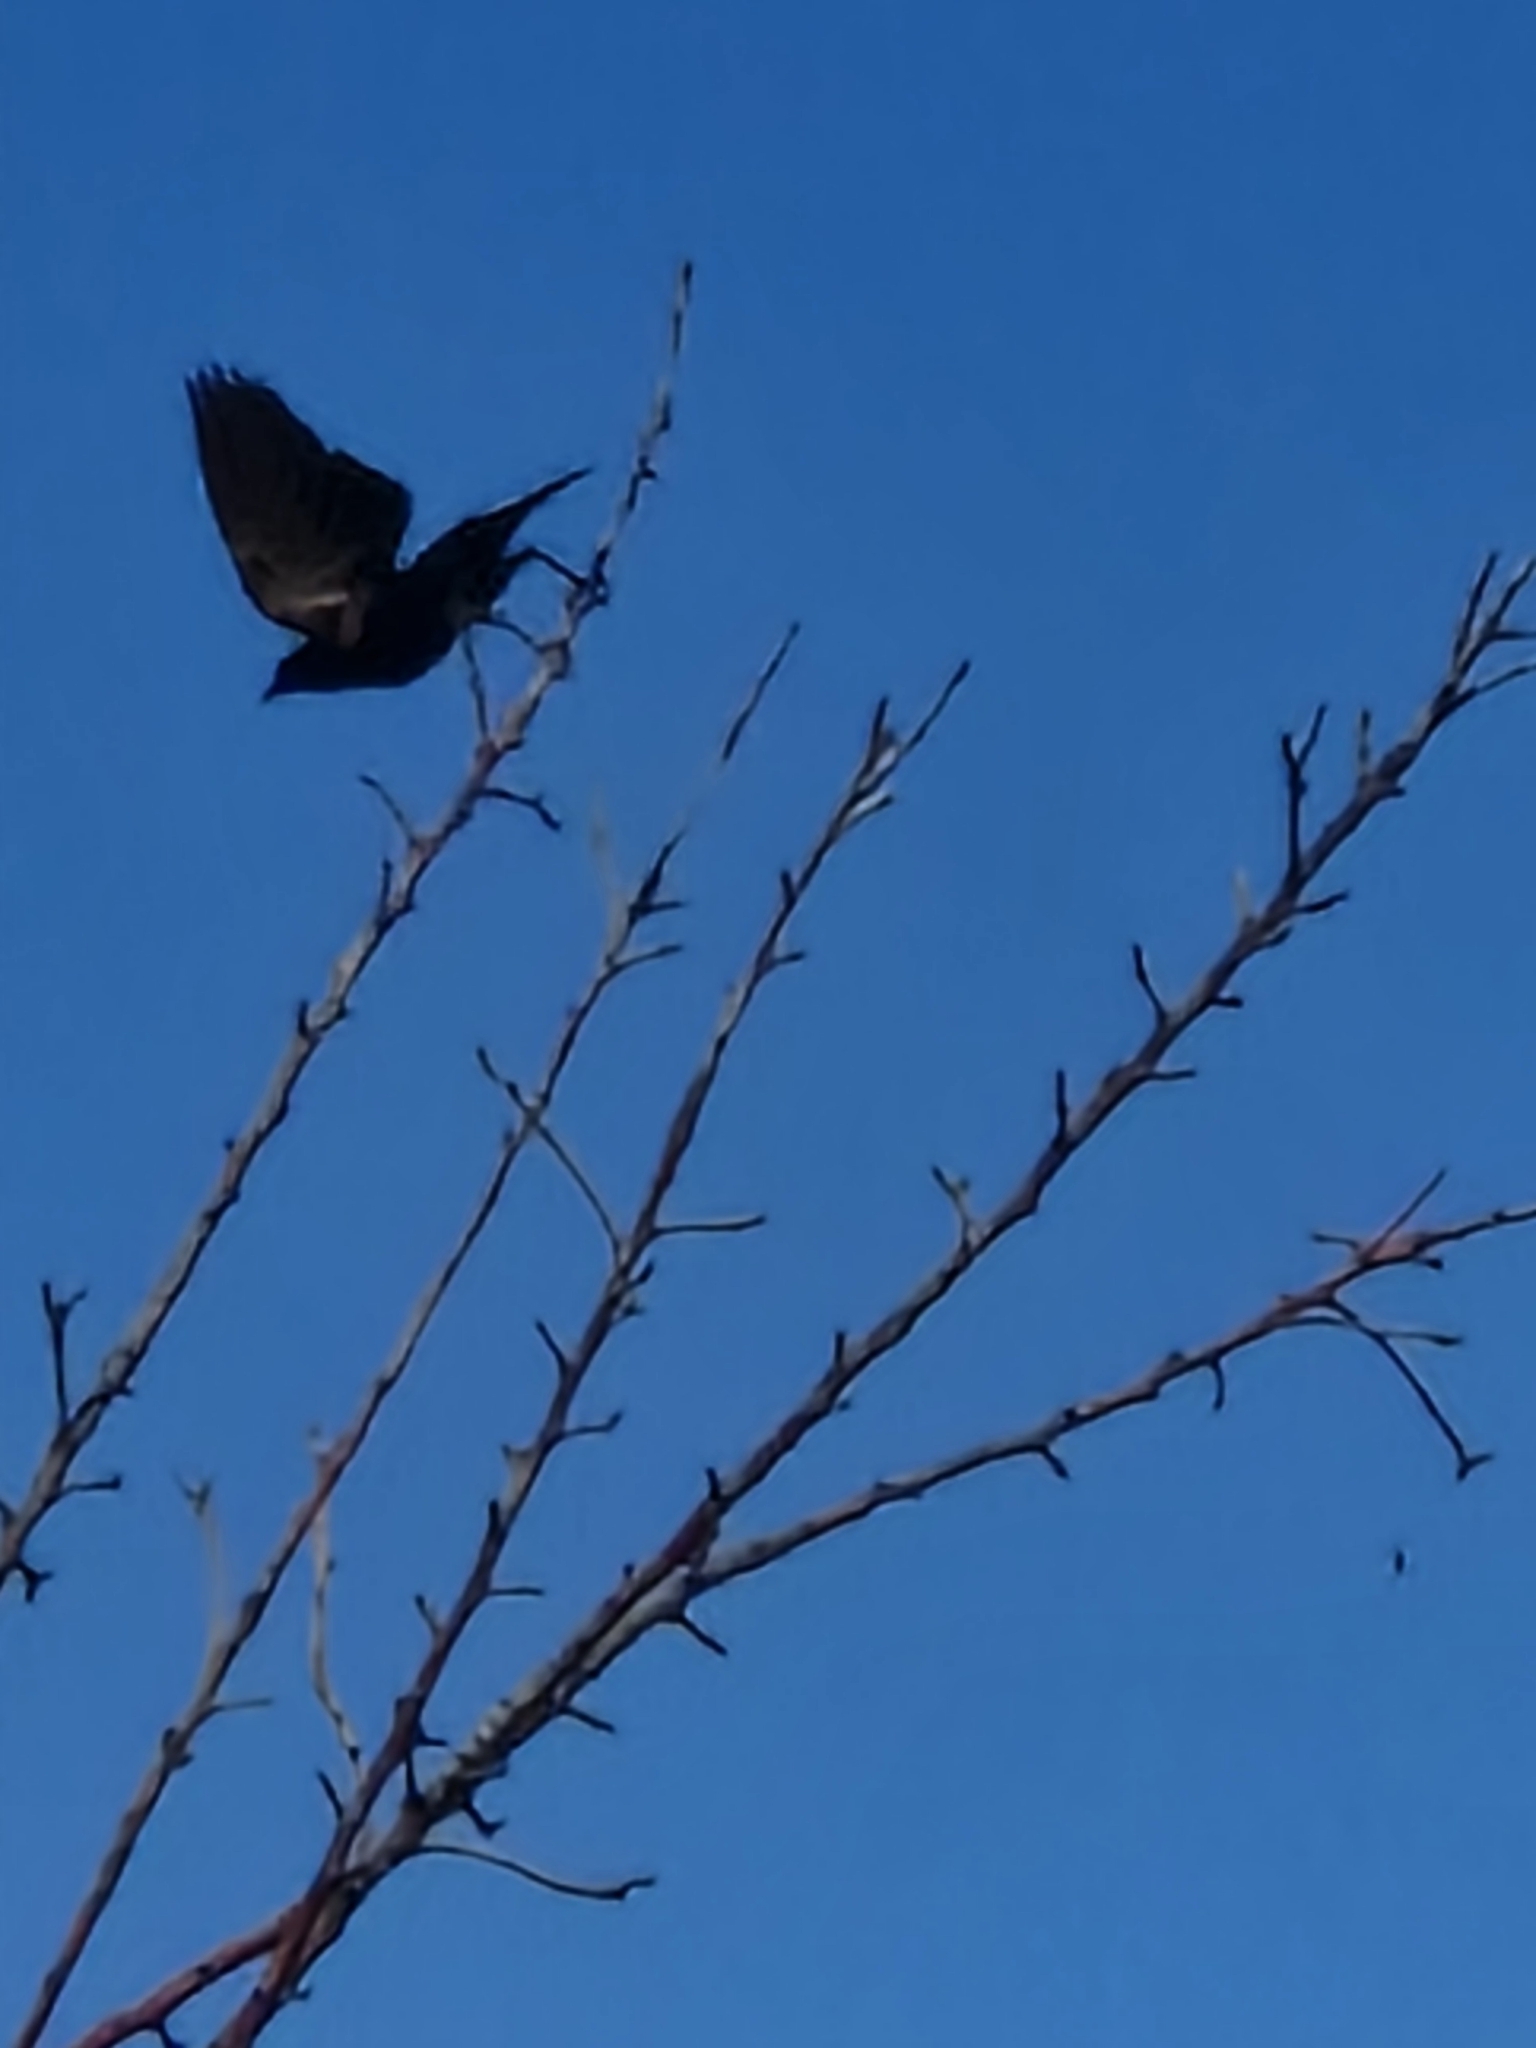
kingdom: Animalia
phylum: Chordata
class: Aves
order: Passeriformes
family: Icteridae
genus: Curaeus
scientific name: Curaeus curaeus
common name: Austral blackbird
